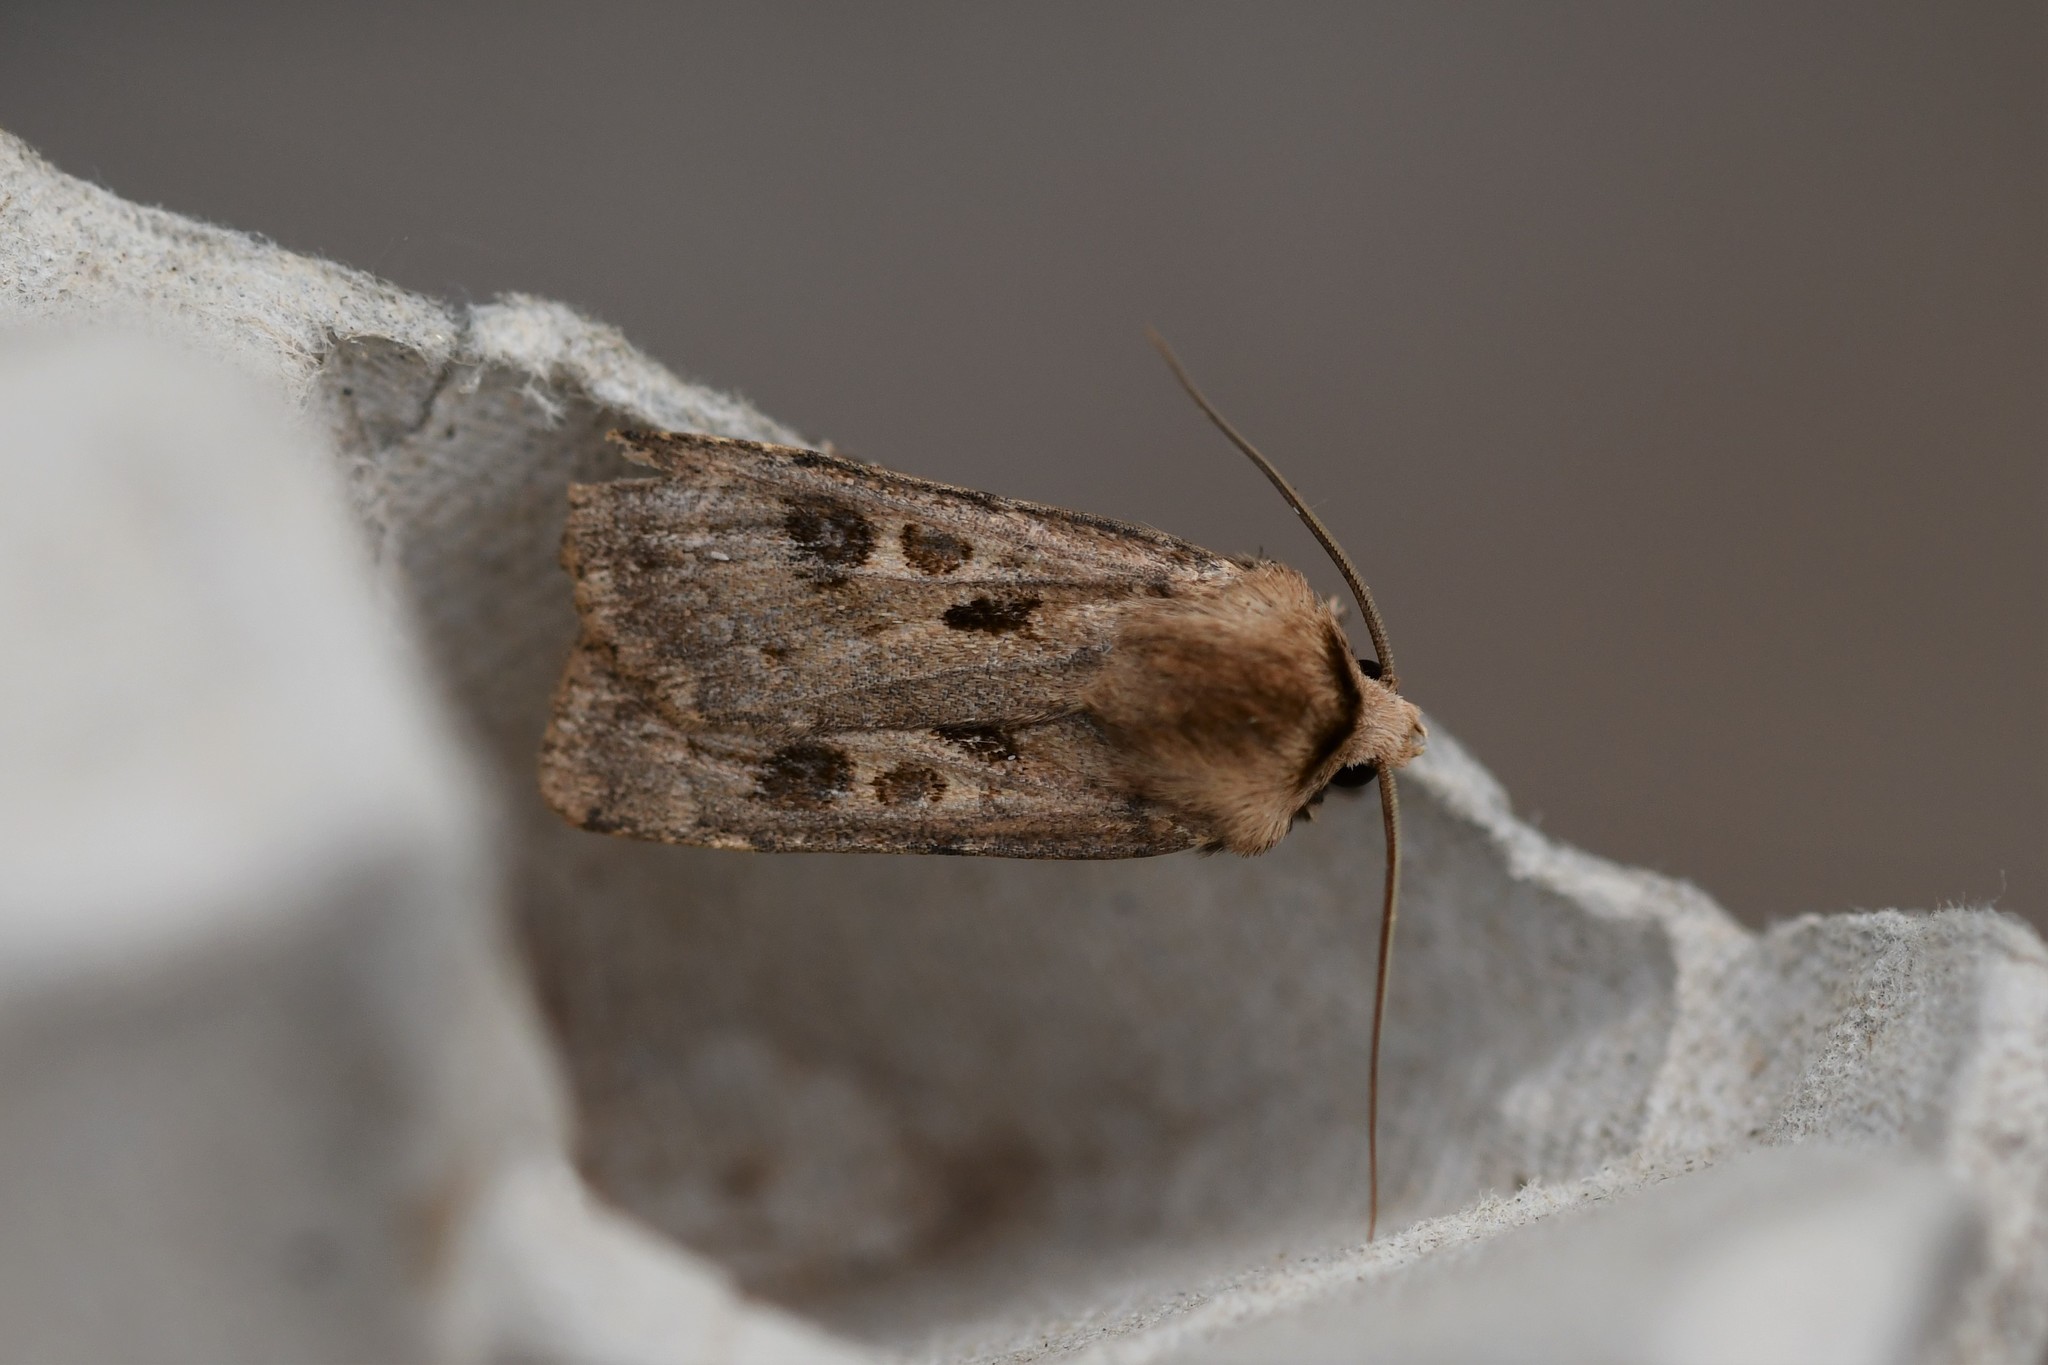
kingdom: Animalia
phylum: Arthropoda
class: Insecta
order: Lepidoptera
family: Noctuidae
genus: Agrotis
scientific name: Agrotis exclamationis
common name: Heart and dart
